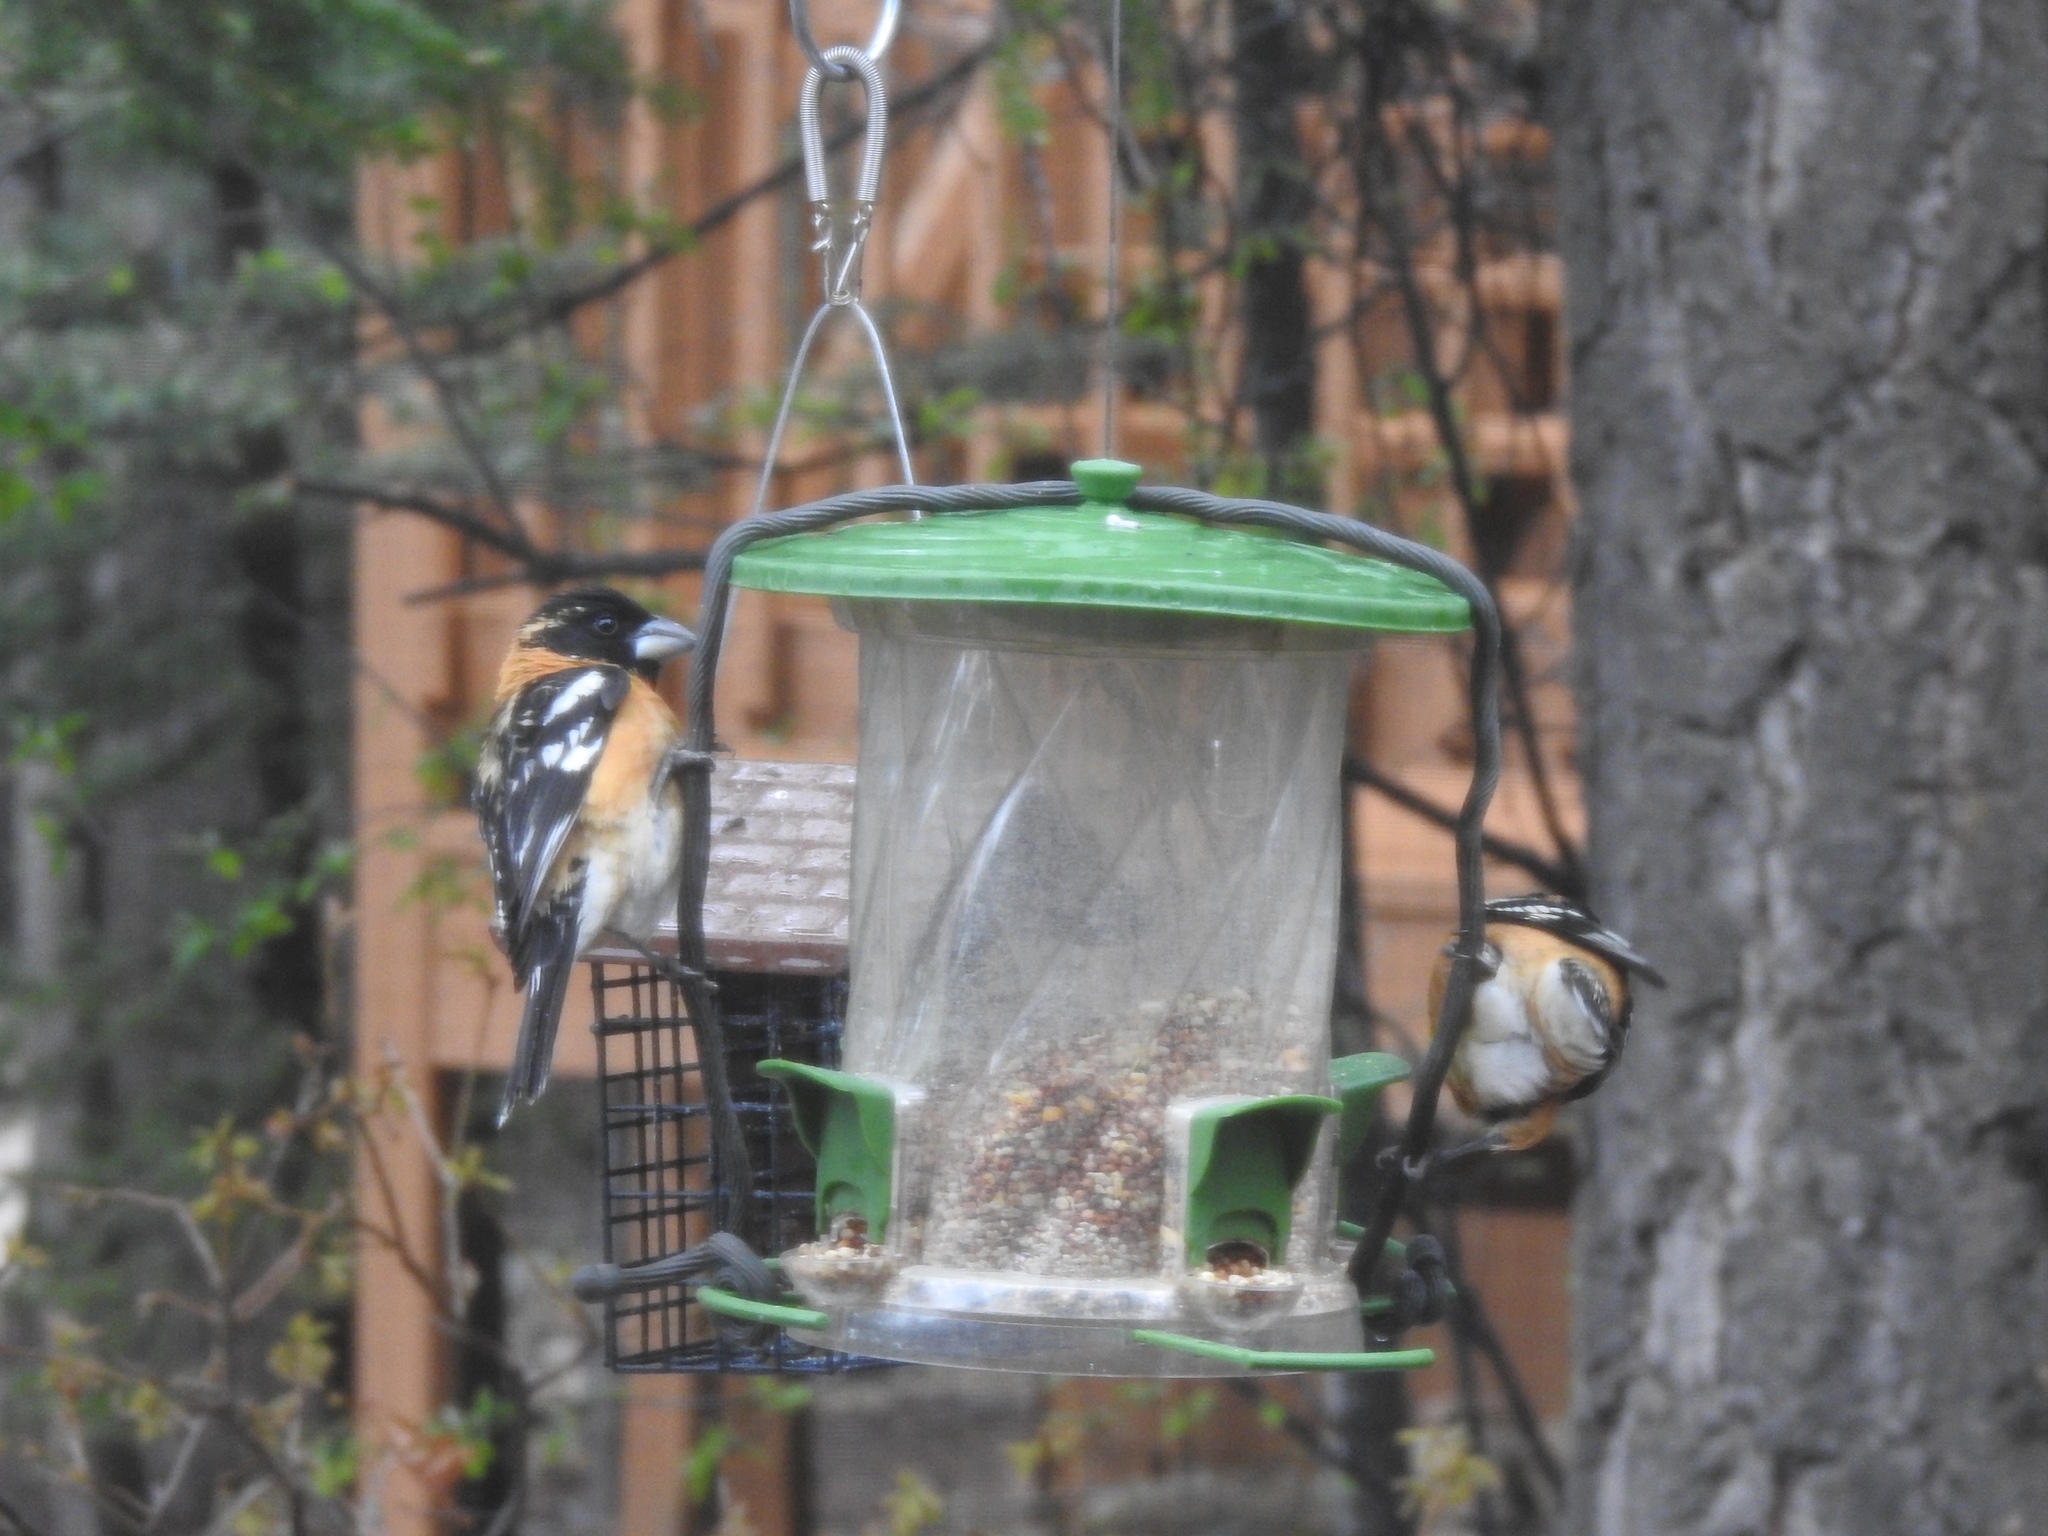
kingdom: Animalia
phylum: Chordata
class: Aves
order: Passeriformes
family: Cardinalidae
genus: Pheucticus
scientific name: Pheucticus melanocephalus
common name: Black-headed grosbeak
